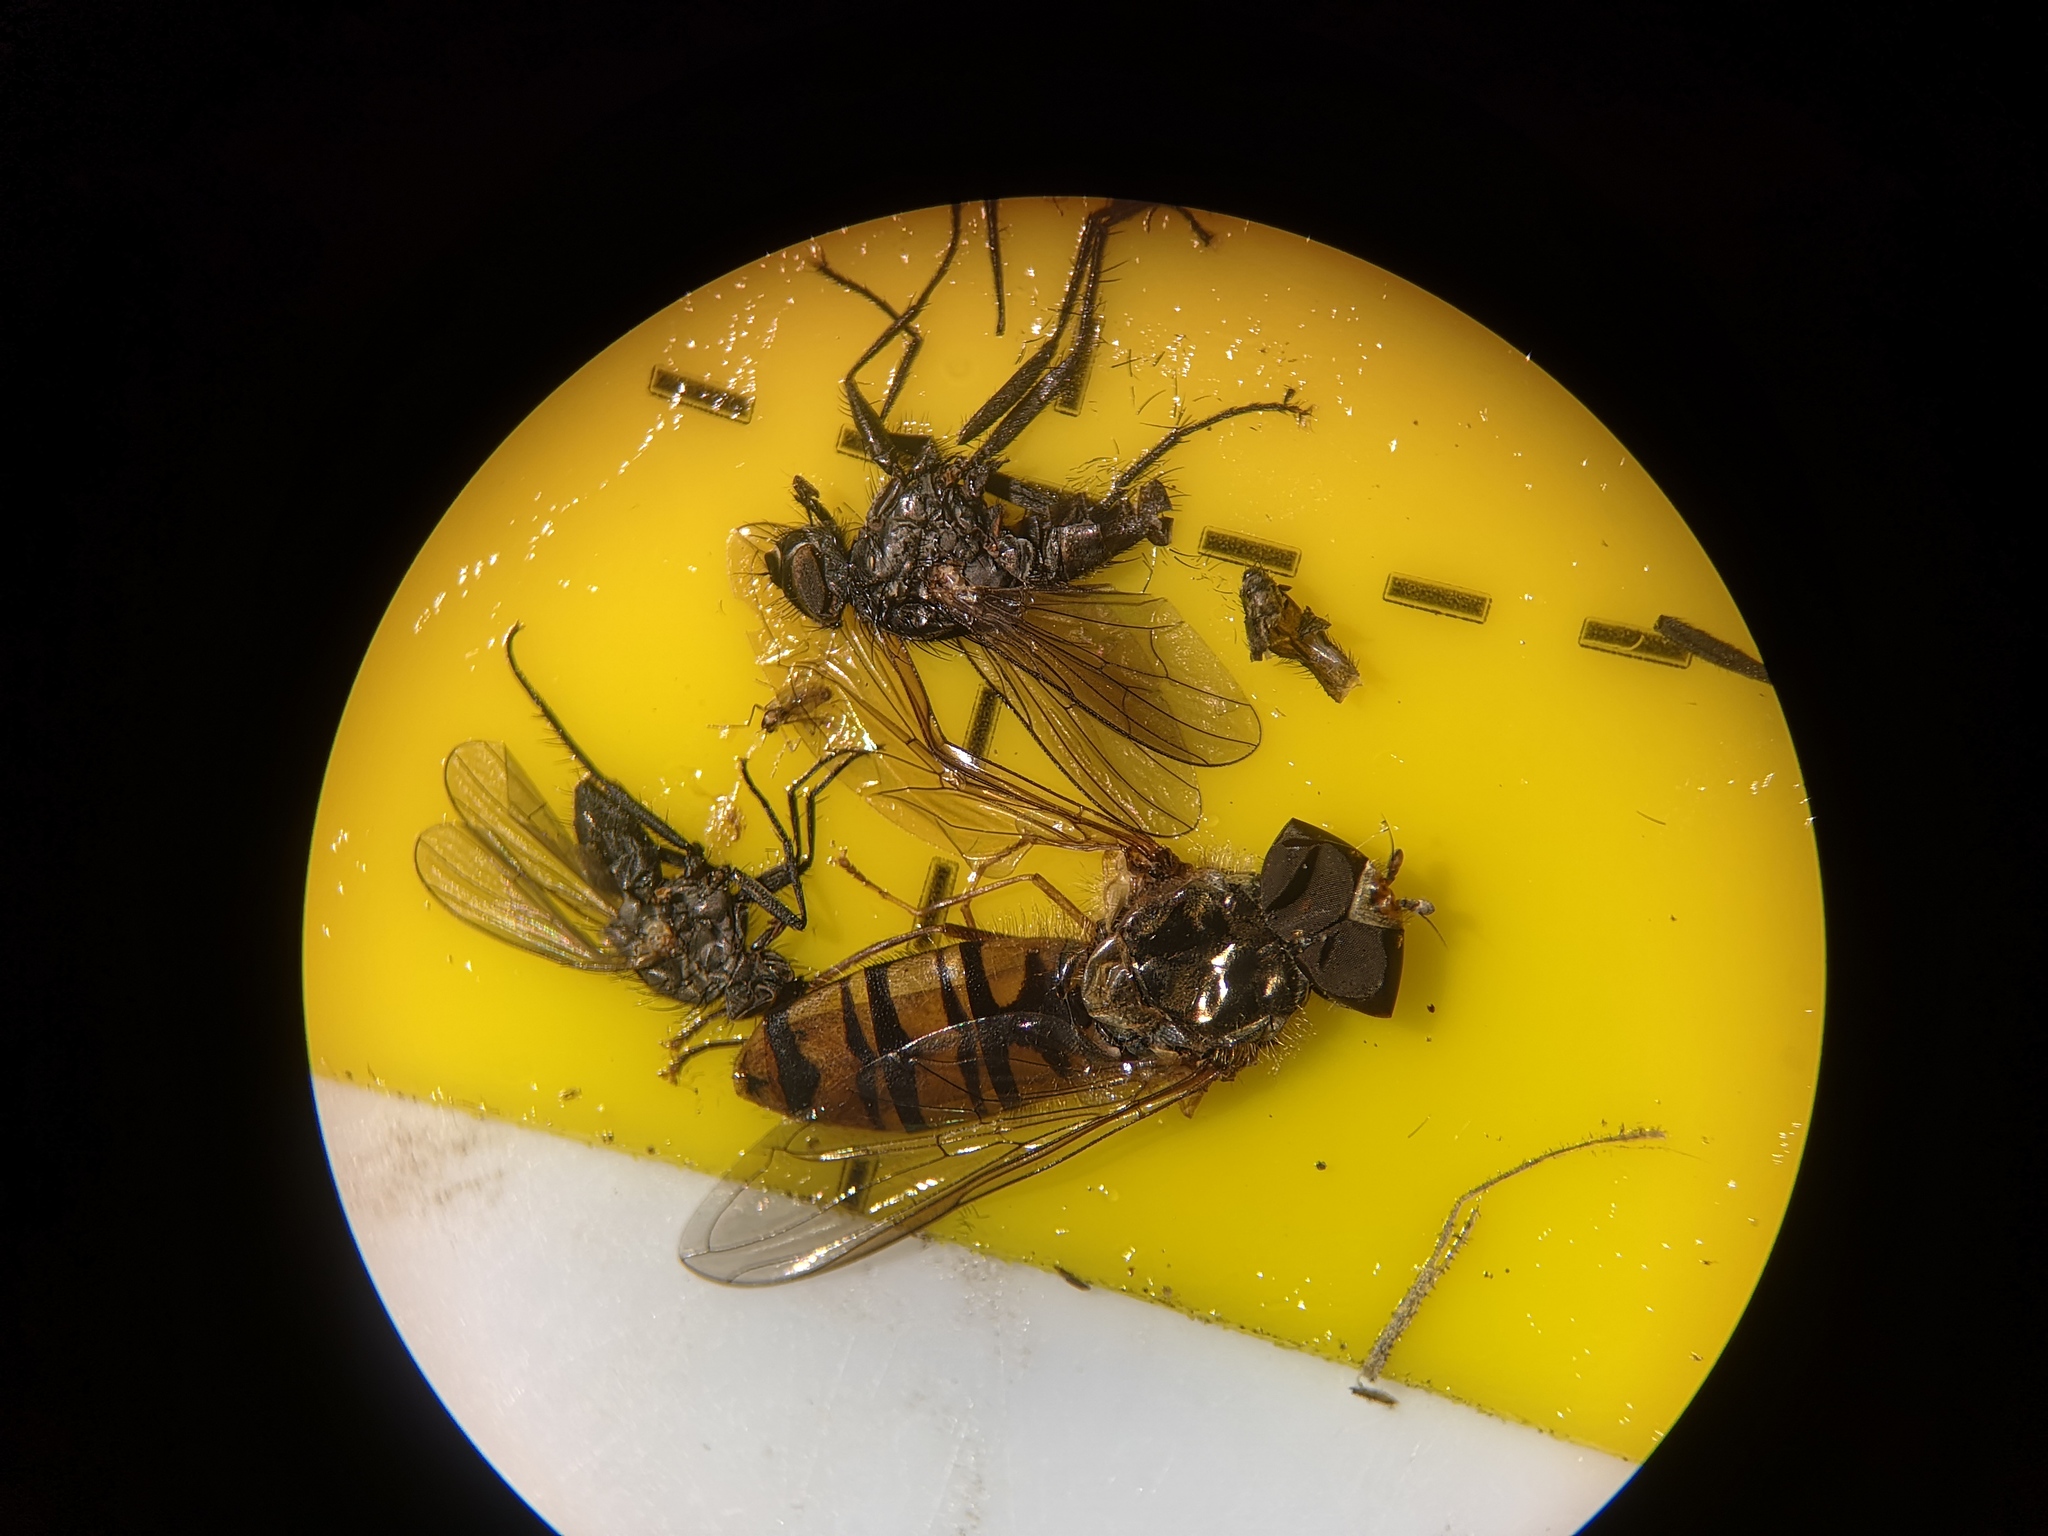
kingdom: Animalia
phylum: Arthropoda
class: Insecta
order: Diptera
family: Syrphidae
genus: Episyrphus
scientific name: Episyrphus balteatus
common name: Marmalade hoverfly
